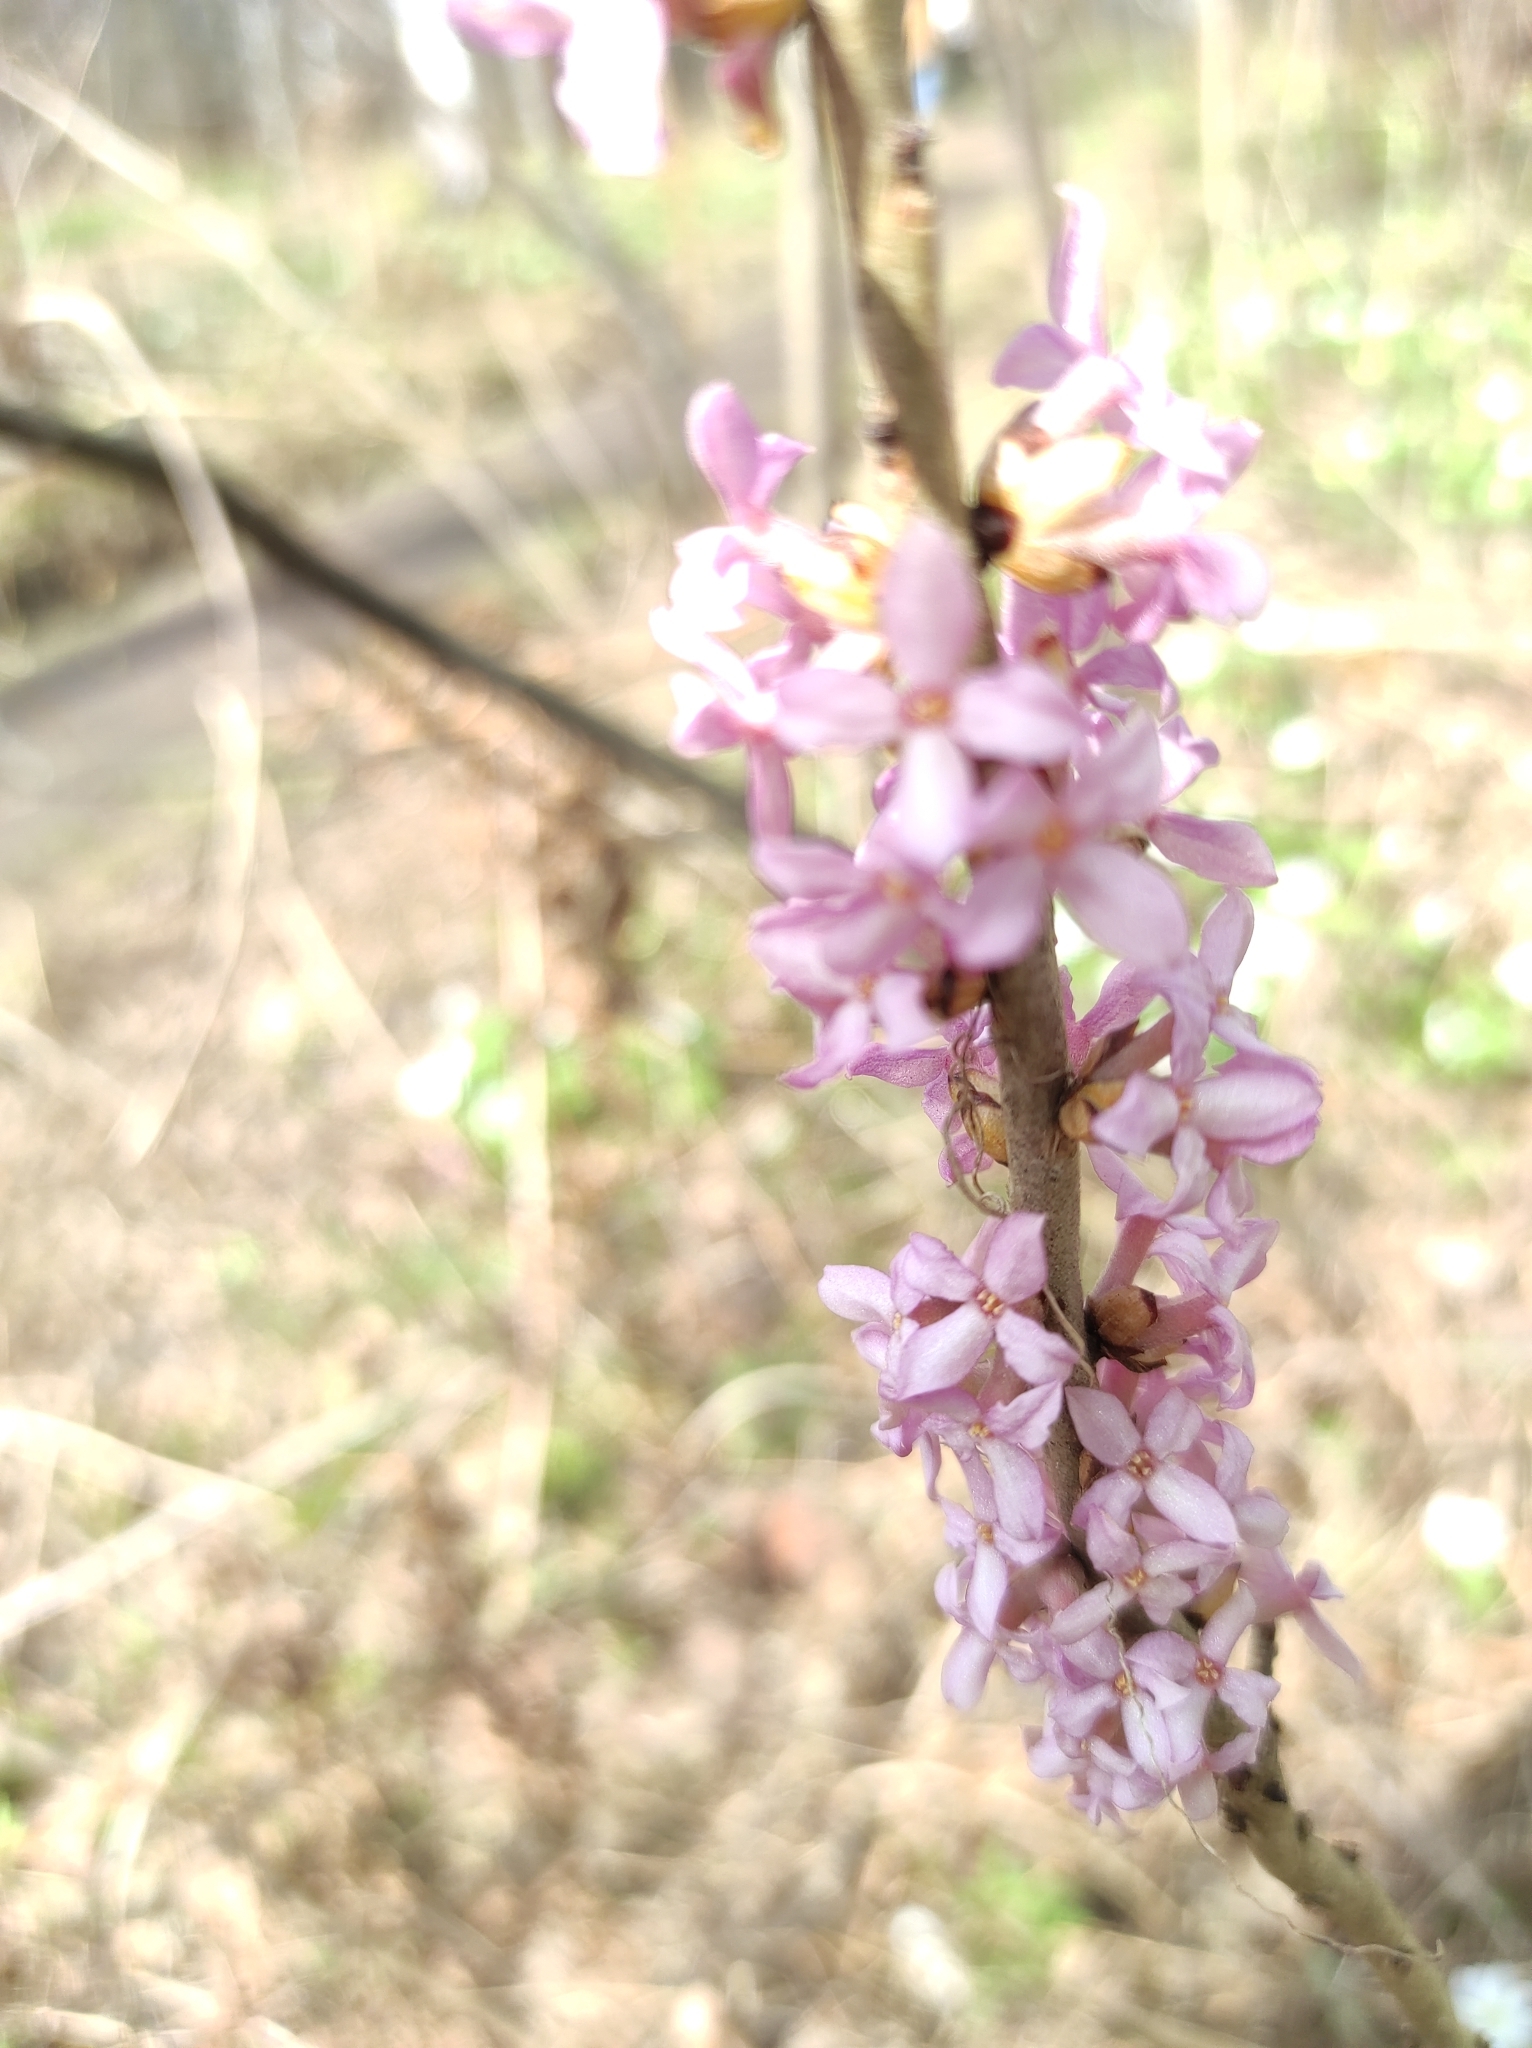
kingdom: Plantae
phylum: Tracheophyta
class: Magnoliopsida
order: Malvales
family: Thymelaeaceae
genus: Daphne
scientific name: Daphne mezereum
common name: Mezereon
